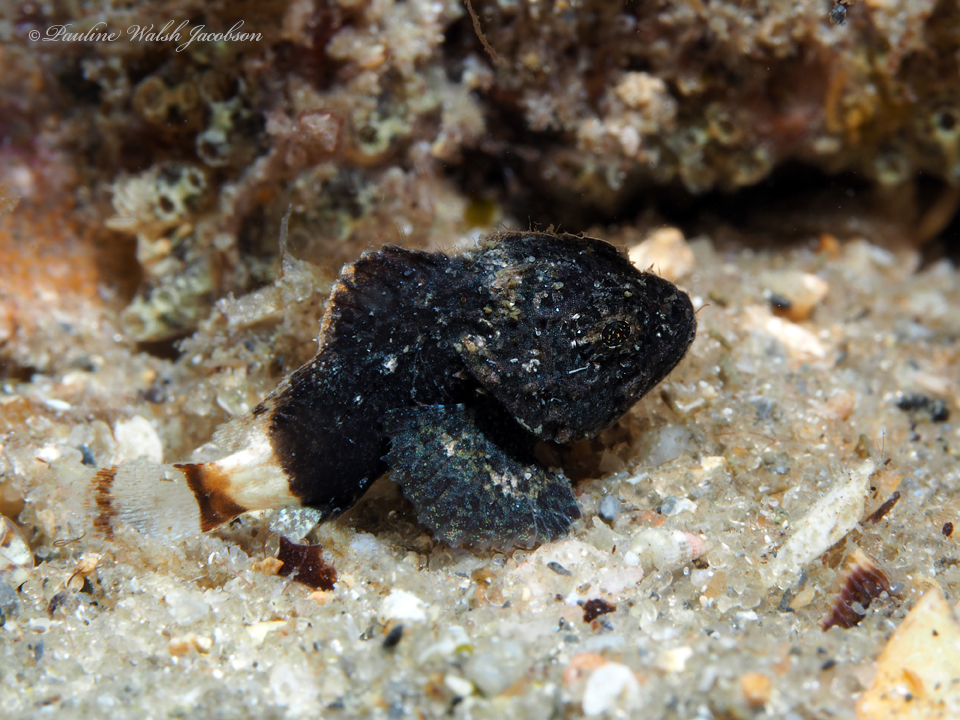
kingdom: Animalia
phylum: Chordata
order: Scorpaeniformes
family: Scorpaenidae
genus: Scorpaena
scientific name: Scorpaena plumieri
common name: Spotted scorpionfish
